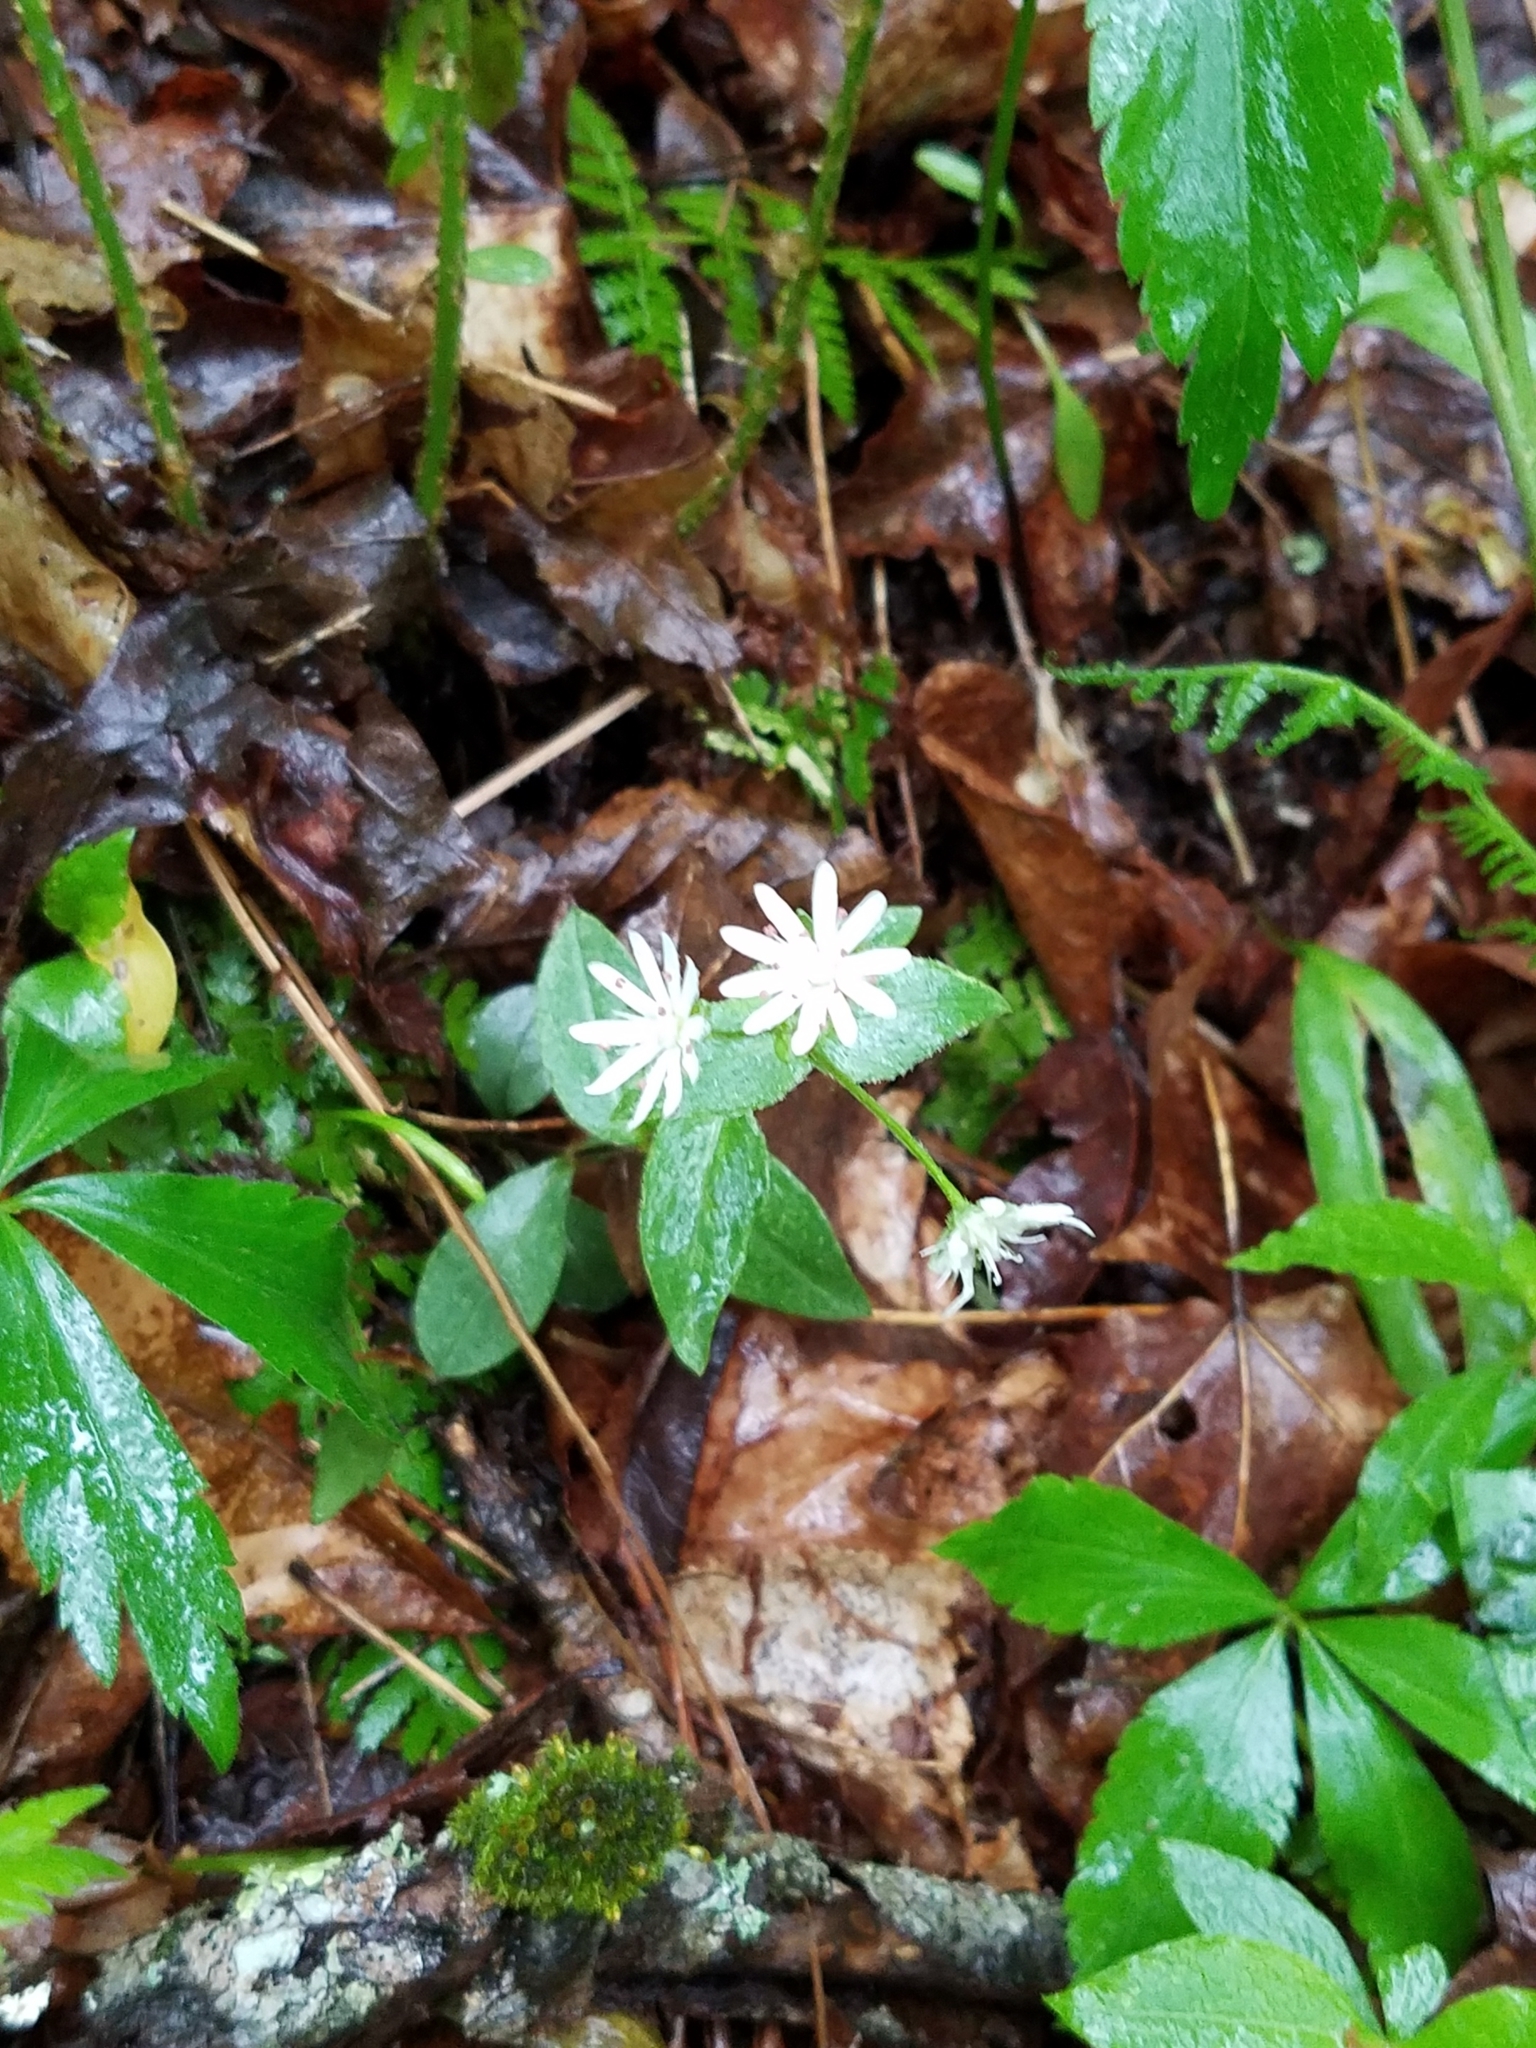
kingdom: Plantae
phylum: Tracheophyta
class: Magnoliopsida
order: Caryophyllales
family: Caryophyllaceae
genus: Stellaria
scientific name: Stellaria pubera
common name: Star chickweed
